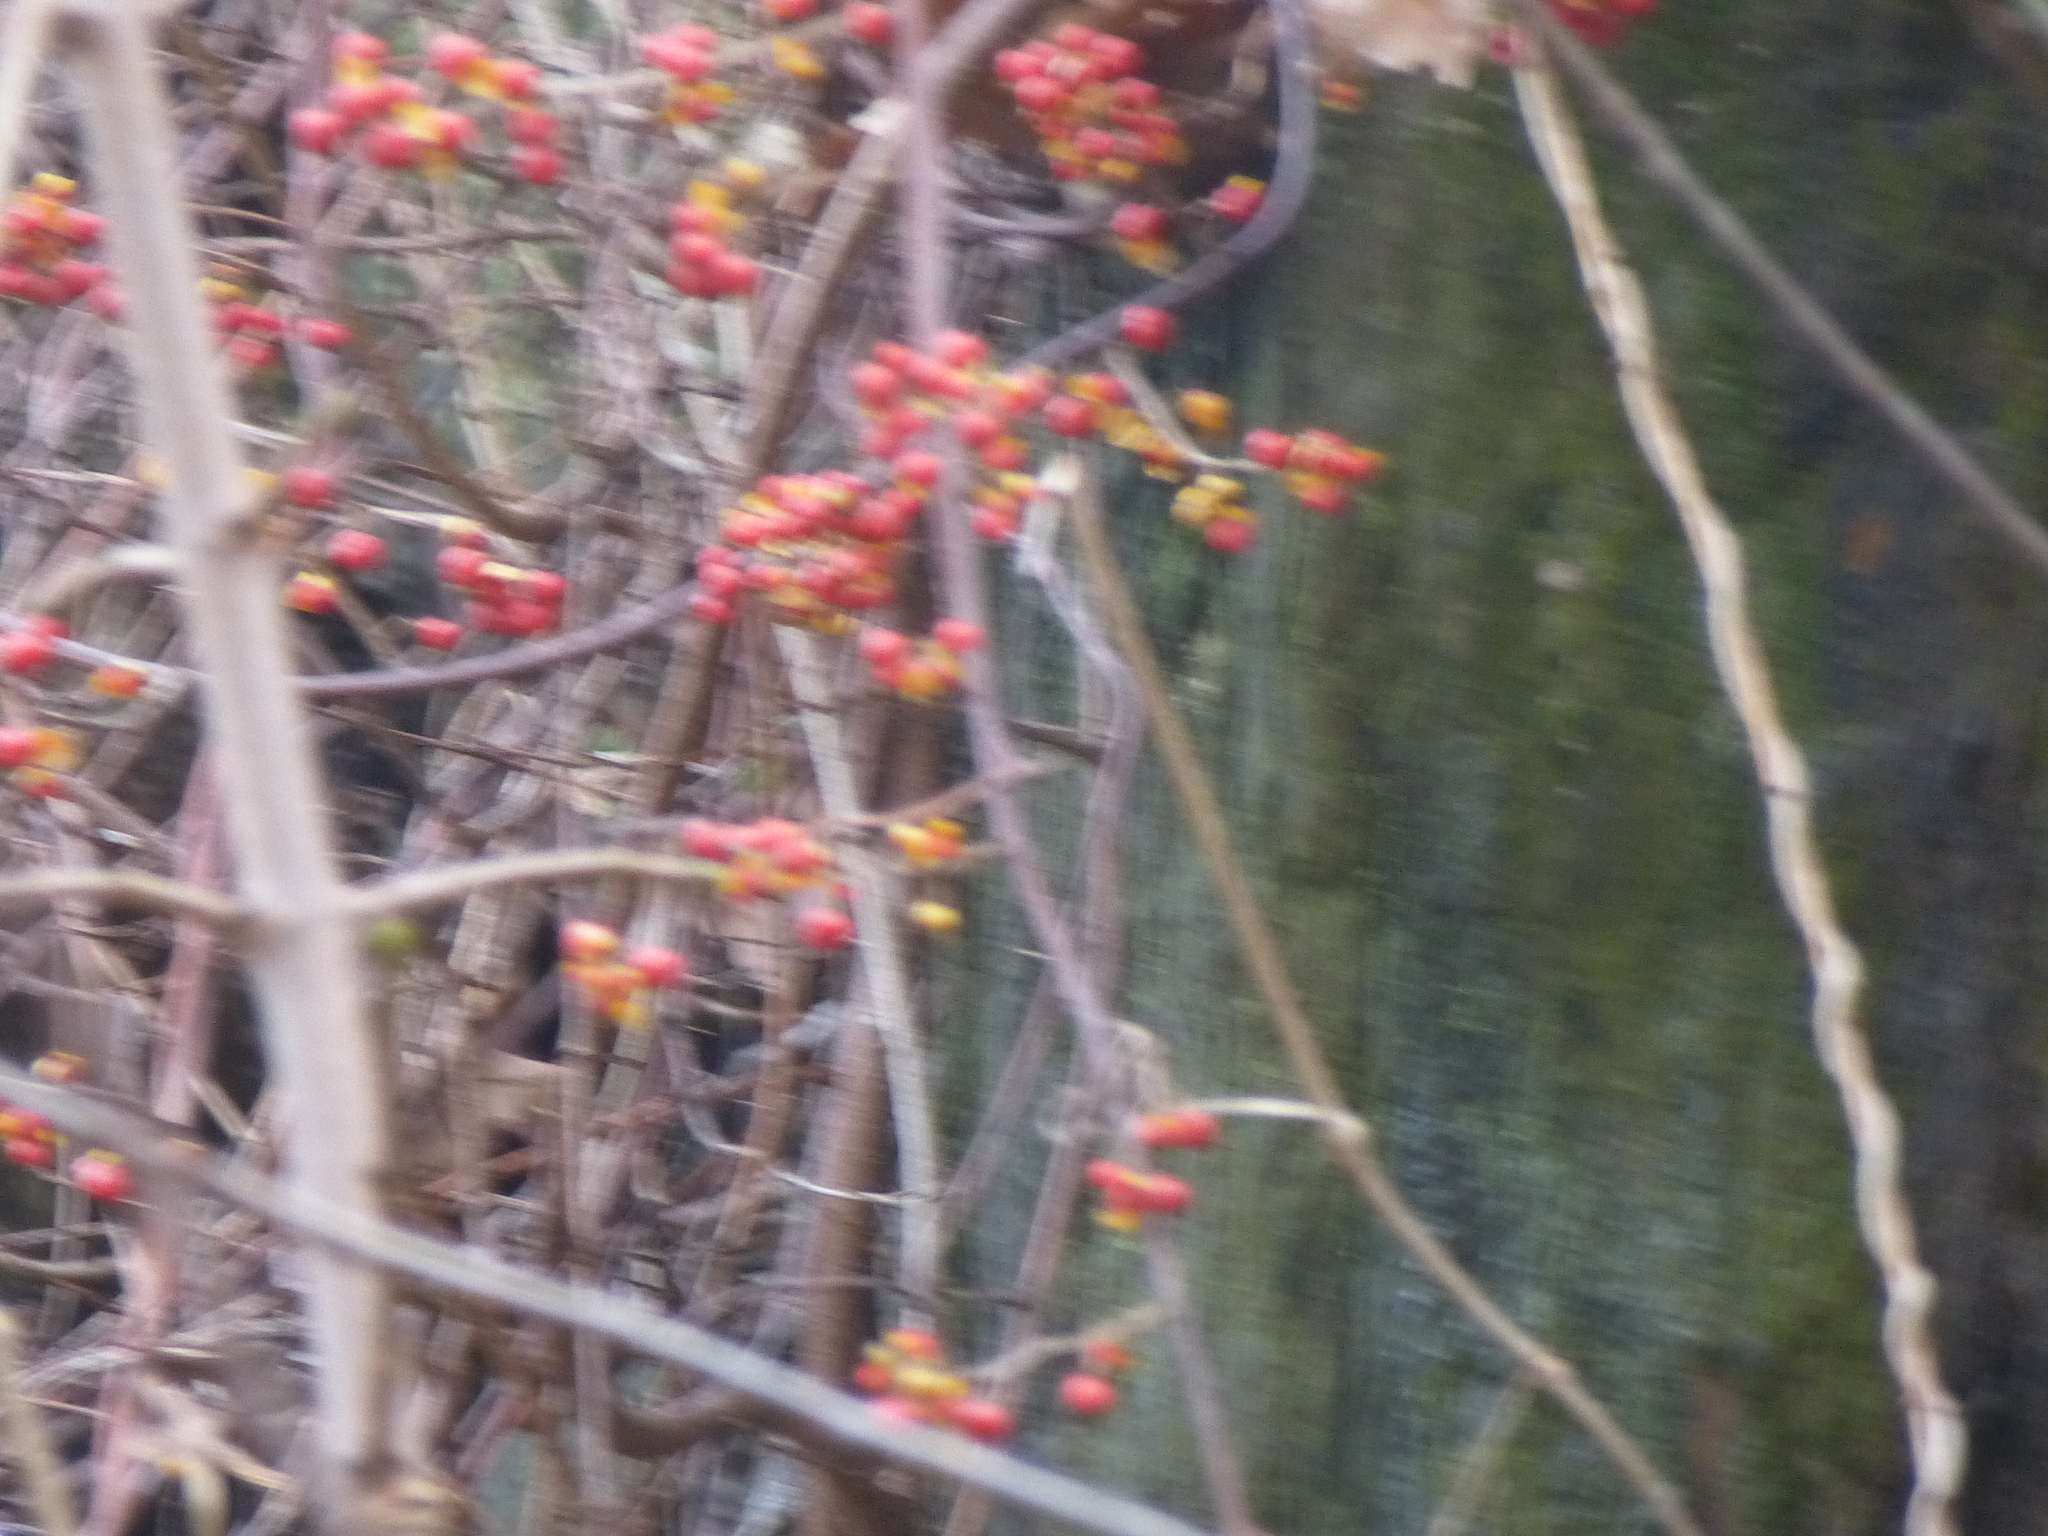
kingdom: Plantae
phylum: Tracheophyta
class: Magnoliopsida
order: Celastrales
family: Celastraceae
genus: Celastrus
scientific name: Celastrus orbiculatus
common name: Oriental bittersweet
